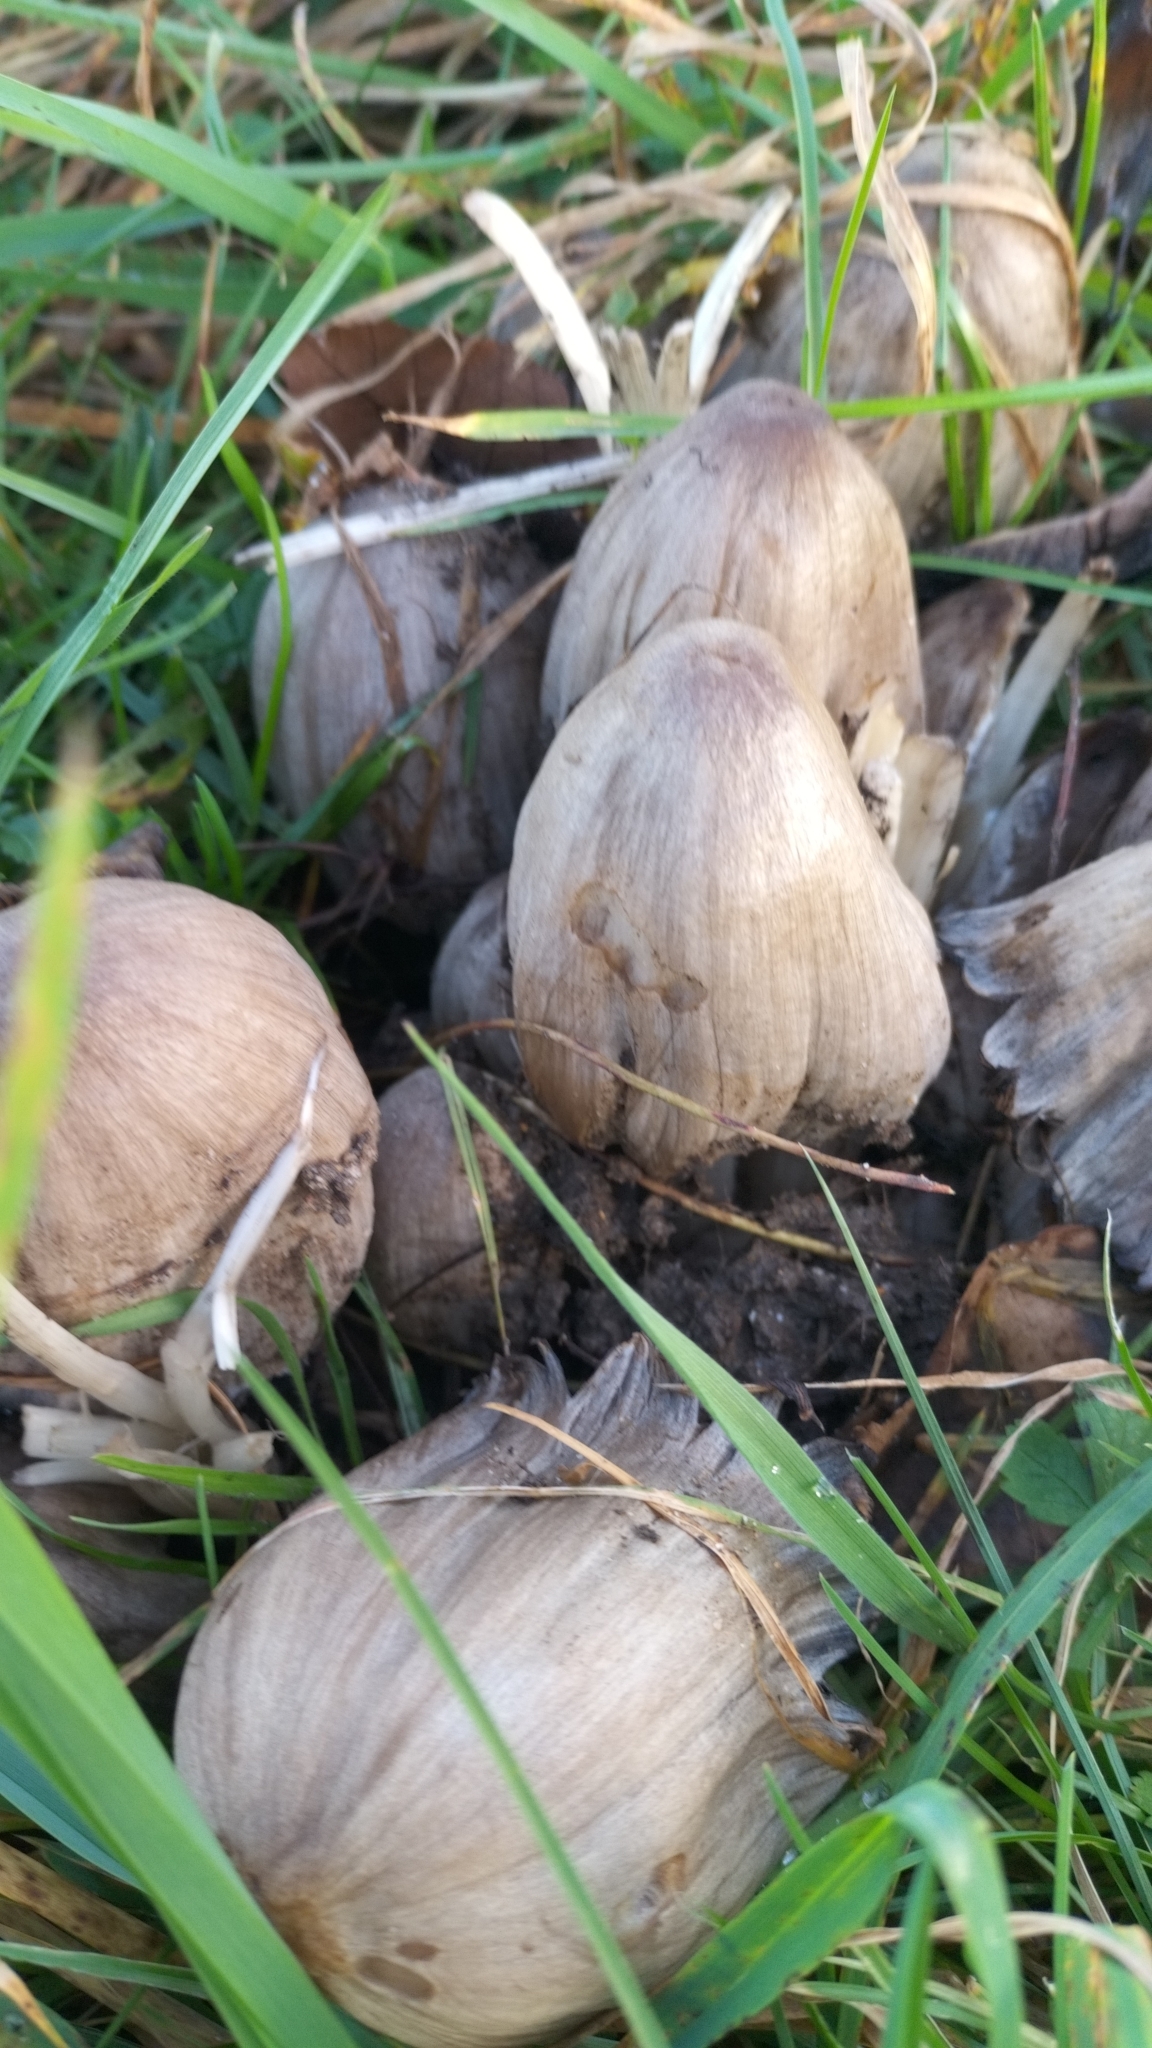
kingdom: Fungi
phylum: Basidiomycota
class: Agaricomycetes
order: Agaricales
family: Psathyrellaceae
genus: Coprinopsis
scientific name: Coprinopsis atramentaria
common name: Common ink-cap
